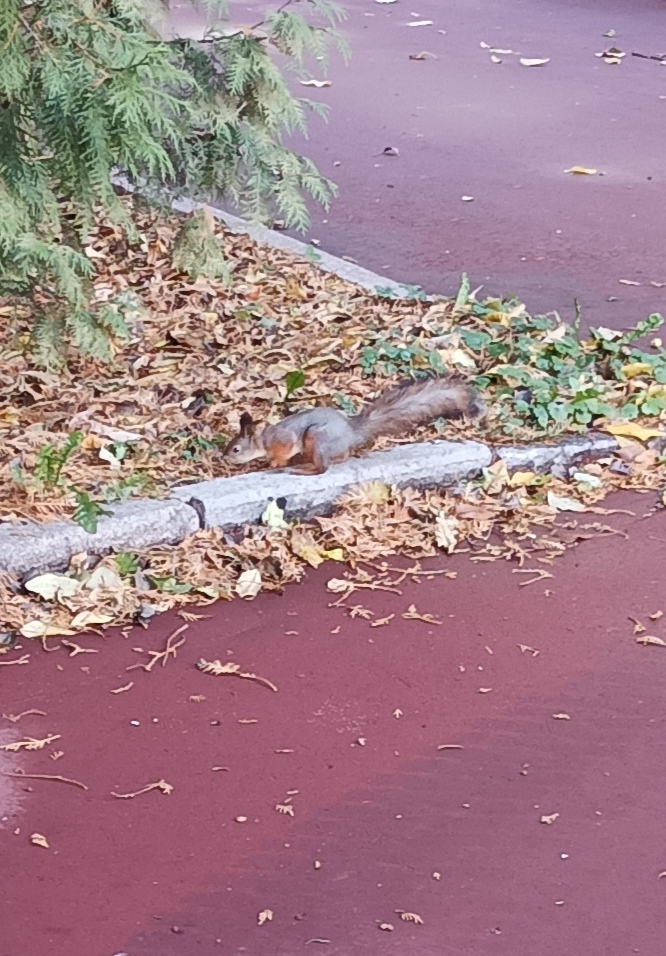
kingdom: Animalia
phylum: Chordata
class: Mammalia
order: Rodentia
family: Sciuridae
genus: Sciurus
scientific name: Sciurus vulgaris
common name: Eurasian red squirrel
